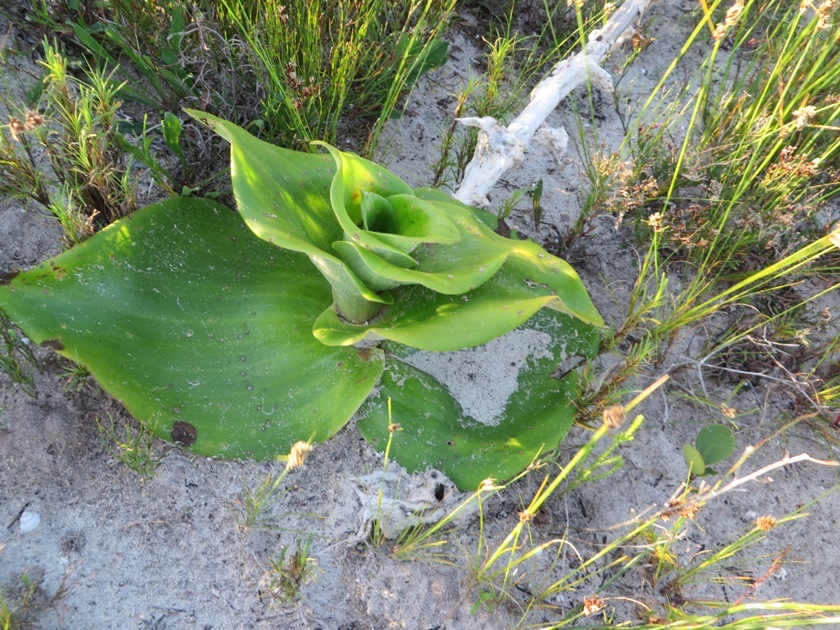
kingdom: Plantae
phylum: Tracheophyta
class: Liliopsida
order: Asparagales
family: Orchidaceae
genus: Satyrium
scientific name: Satyrium carneum
